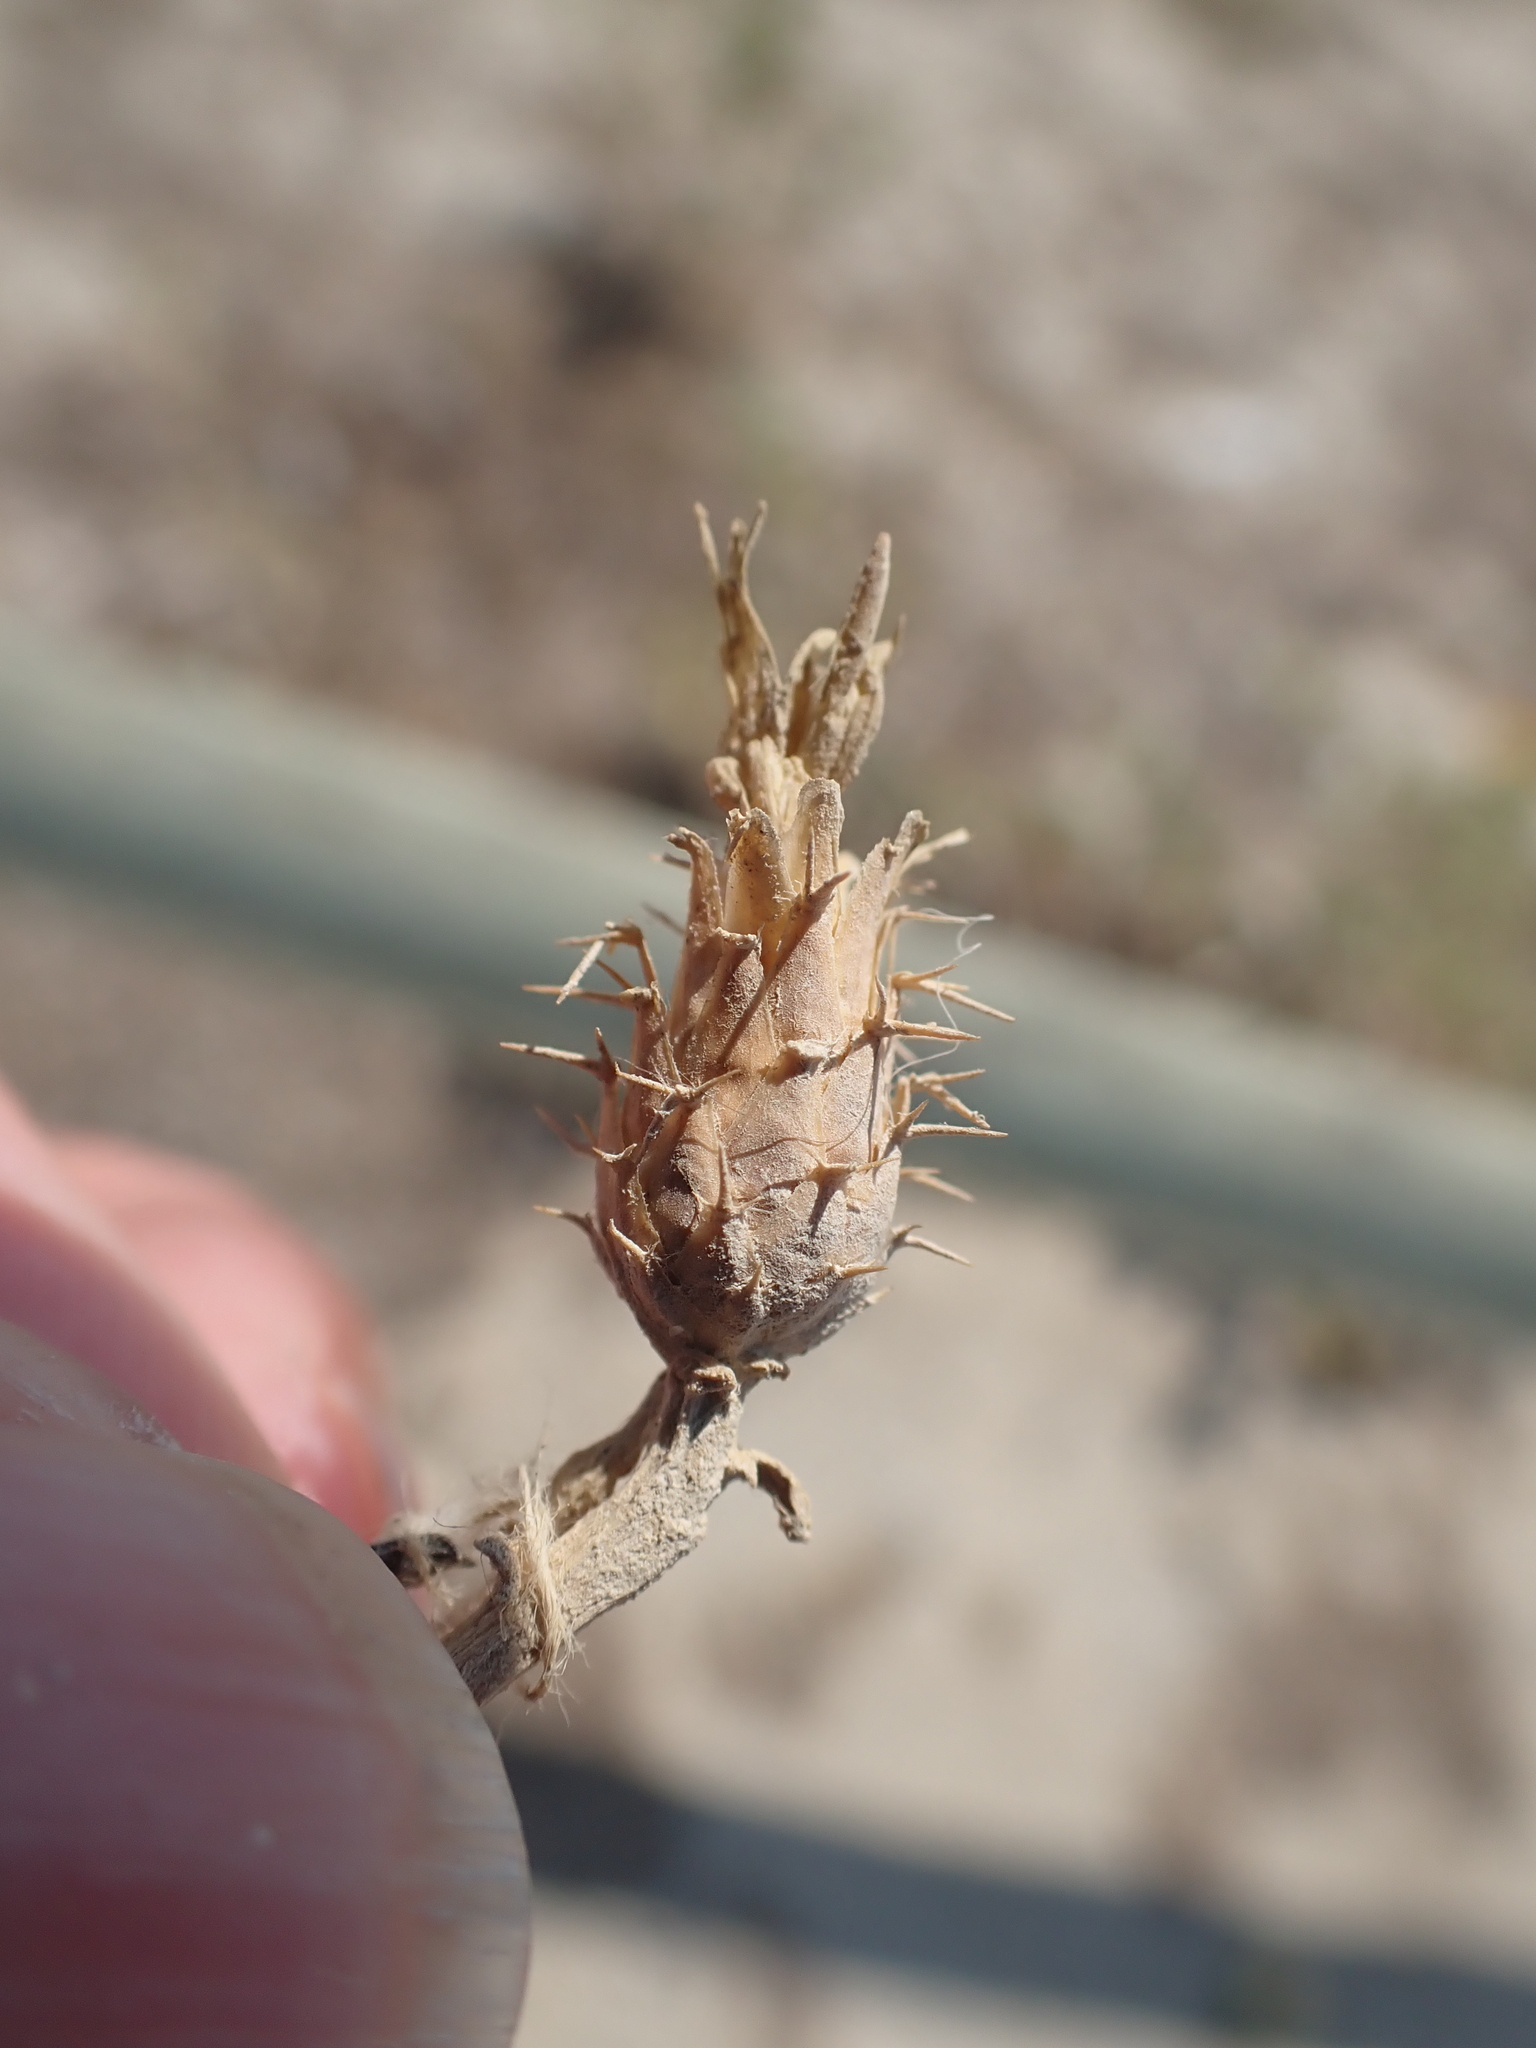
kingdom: Plantae
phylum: Tracheophyta
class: Magnoliopsida
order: Asterales
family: Asteraceae
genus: Centaurea
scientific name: Centaurea aspera
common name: Rough star-thistle
